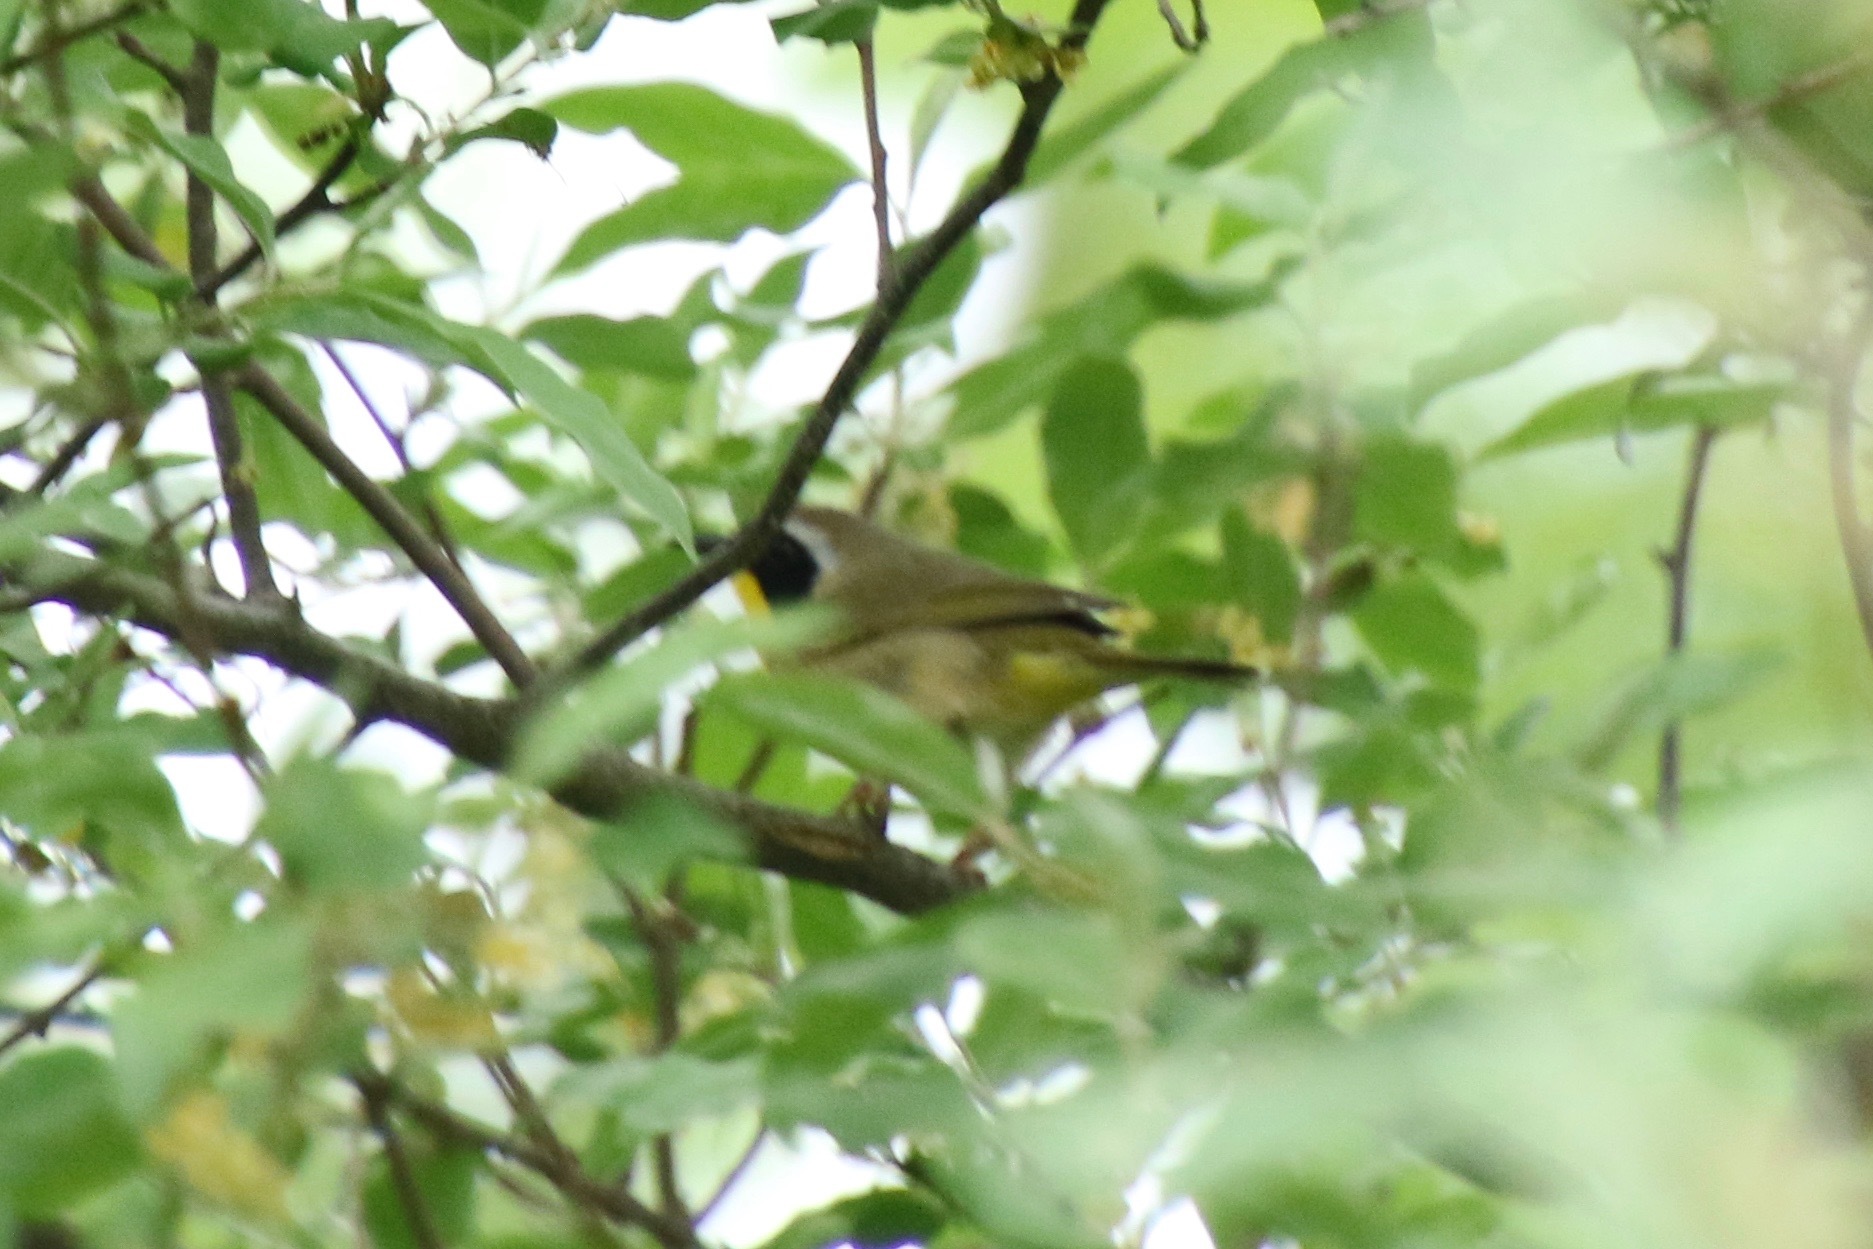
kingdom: Animalia
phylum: Chordata
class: Aves
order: Passeriformes
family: Parulidae
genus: Geothlypis
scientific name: Geothlypis trichas
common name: Common yellowthroat
